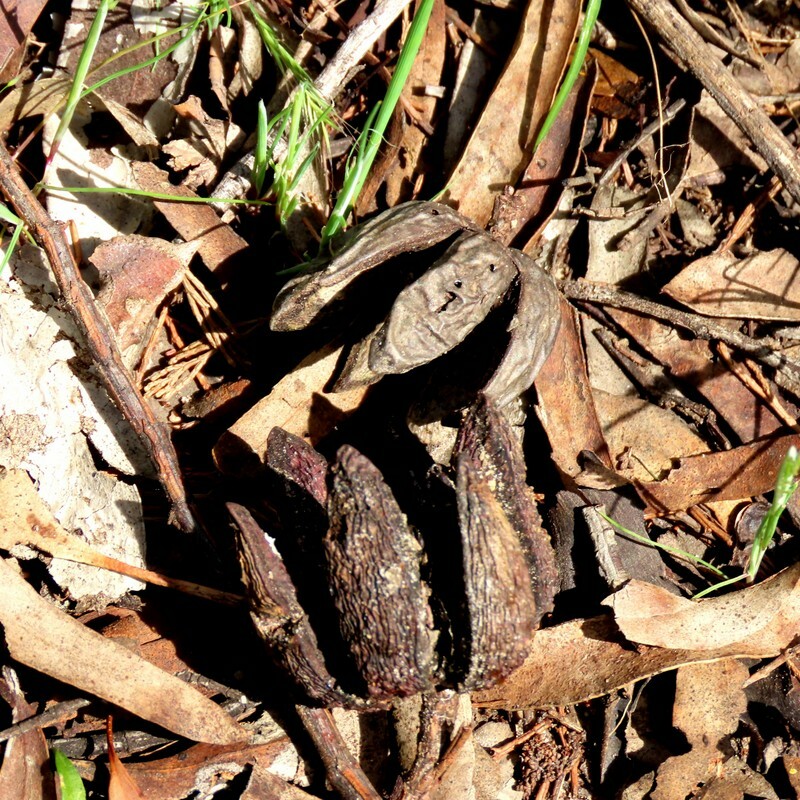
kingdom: Plantae
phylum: Tracheophyta
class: Pinopsida
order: Pinales
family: Cupressaceae
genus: Callitris
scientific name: Callitris preissii
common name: Mallee pine
